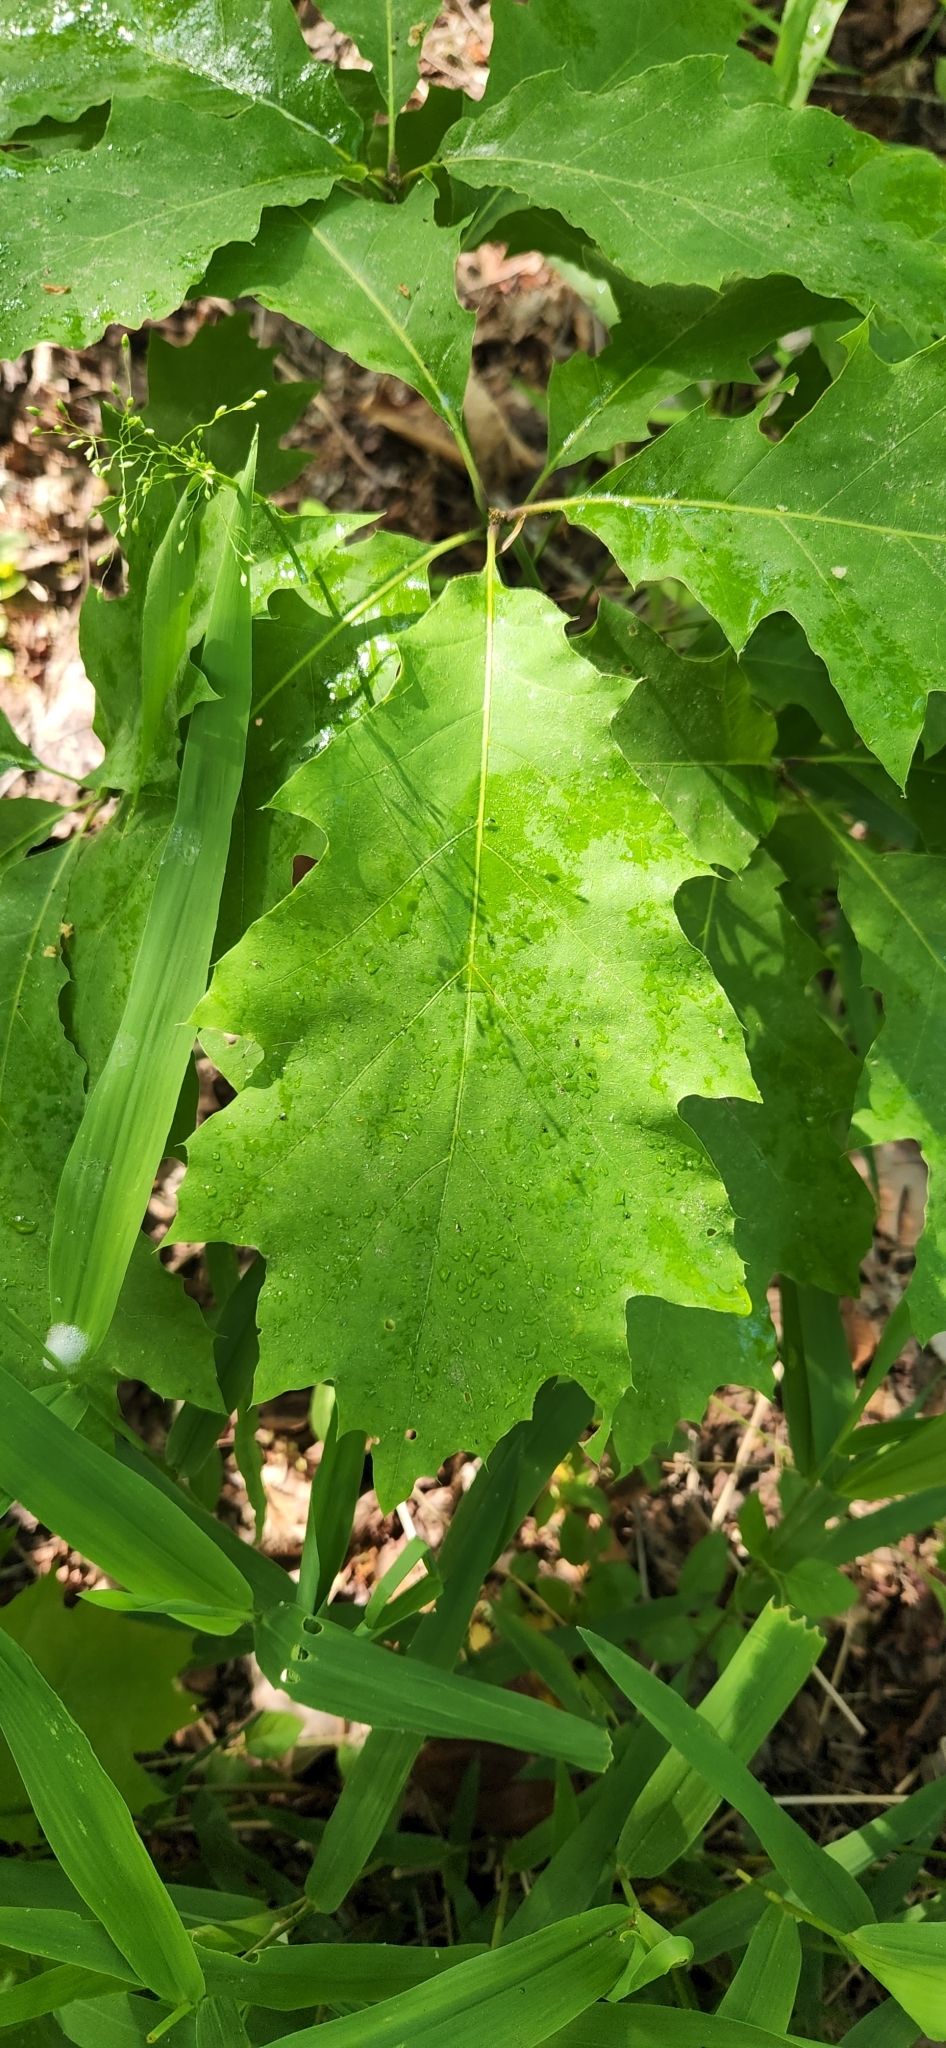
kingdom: Plantae
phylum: Tracheophyta
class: Magnoliopsida
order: Fagales
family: Fagaceae
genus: Quercus
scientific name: Quercus rubra
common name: Red oak
